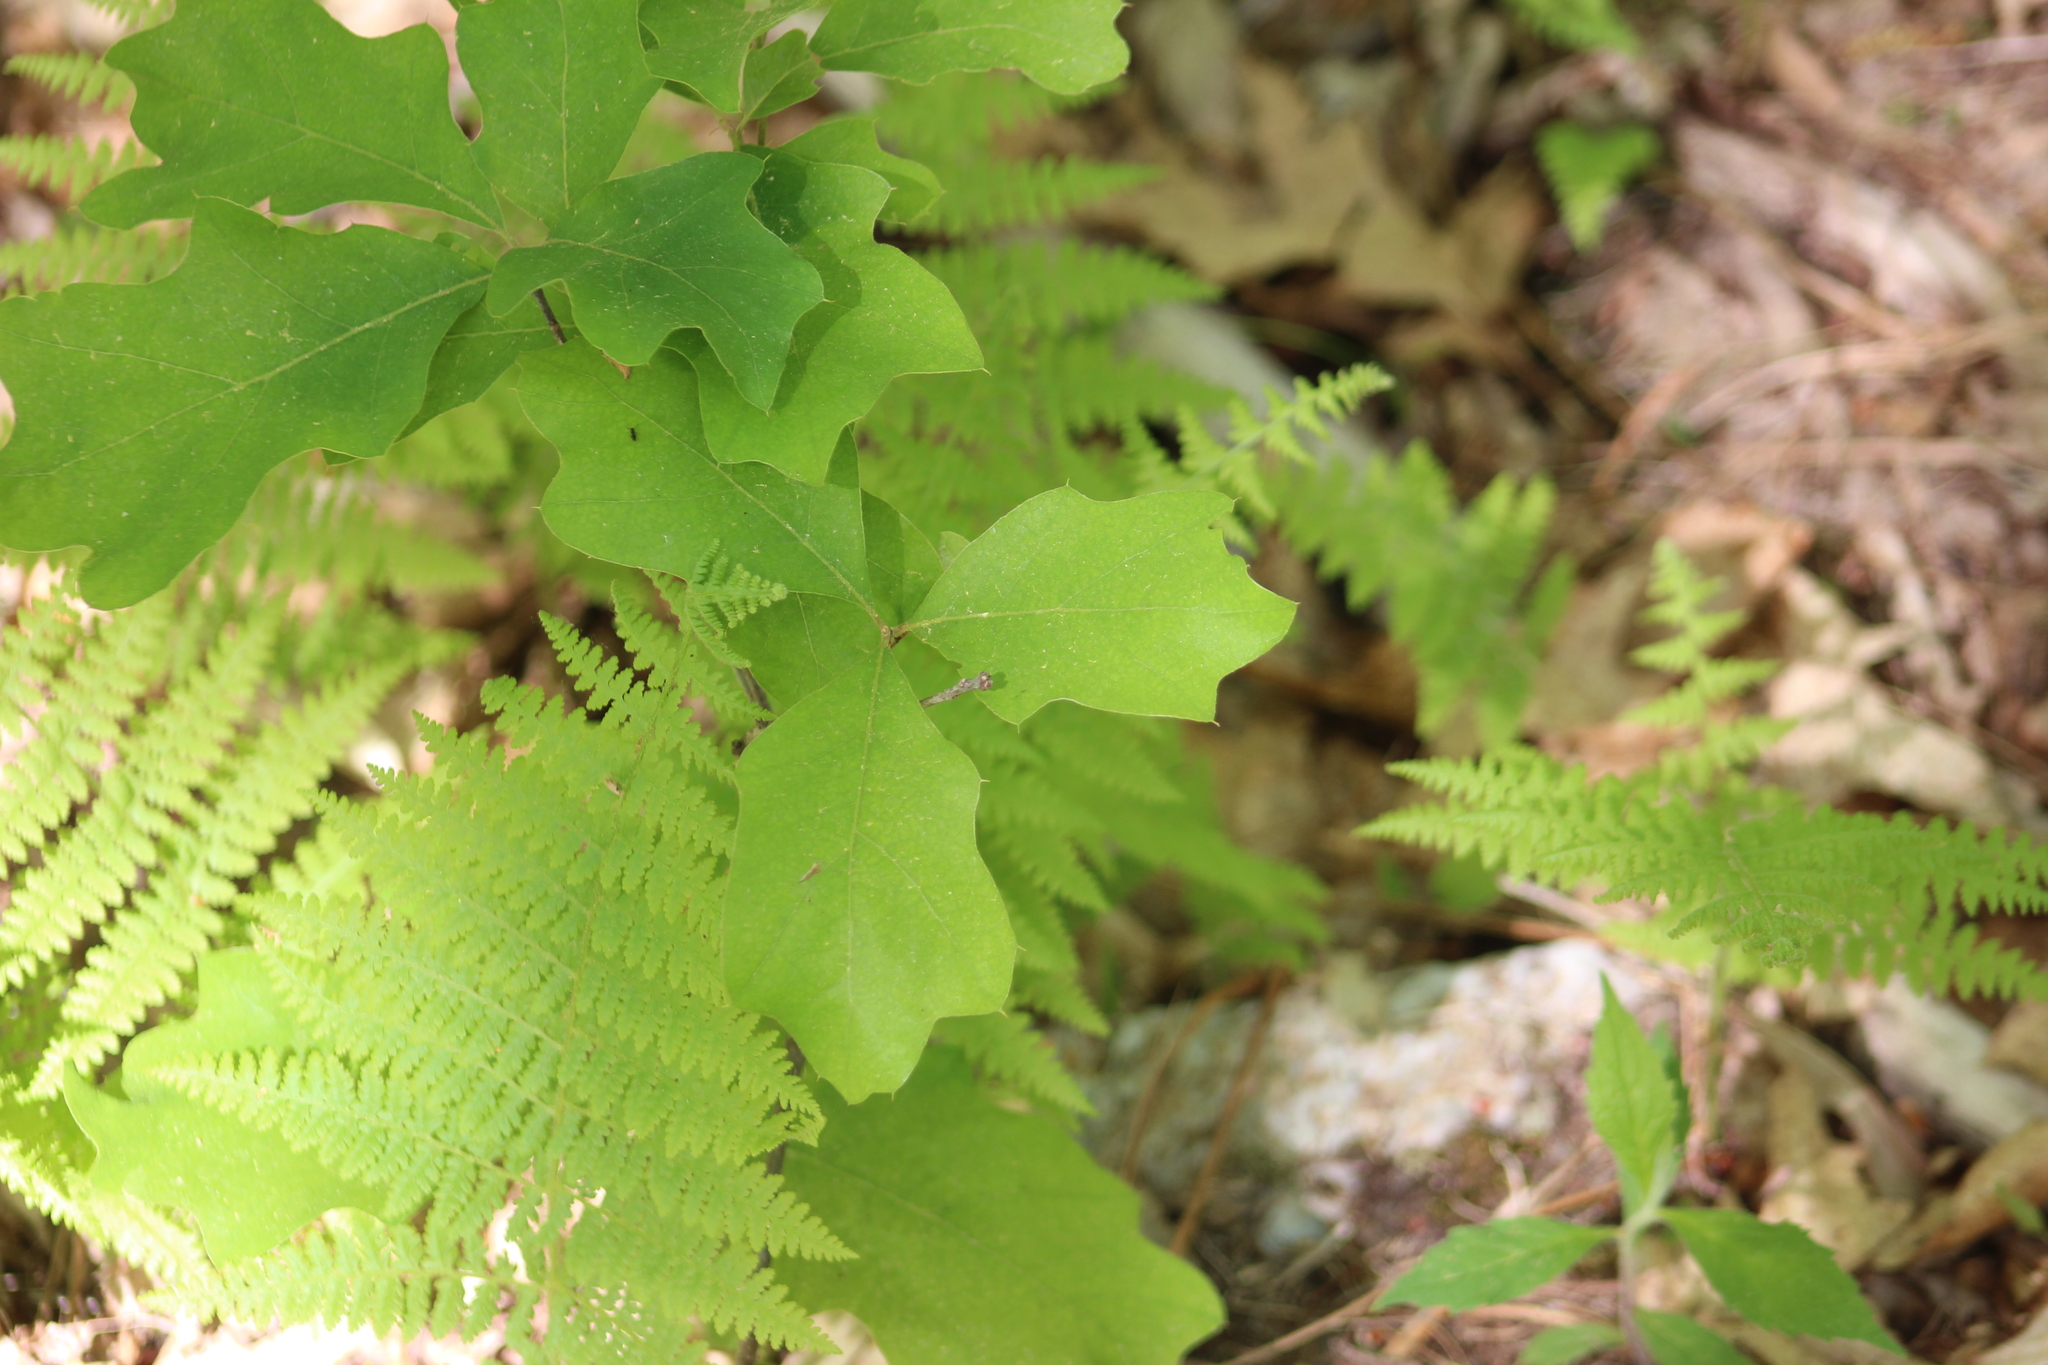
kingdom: Plantae
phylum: Tracheophyta
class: Magnoliopsida
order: Fagales
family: Fagaceae
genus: Quercus
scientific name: Quercus ilicifolia
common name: Bear oak
